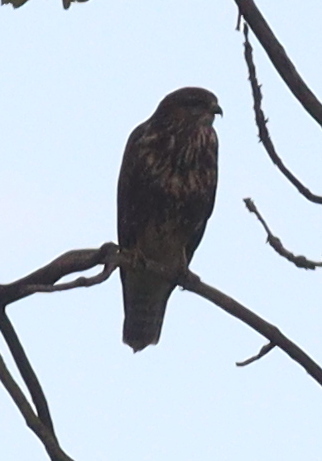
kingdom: Animalia
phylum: Chordata
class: Aves
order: Accipitriformes
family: Accipitridae
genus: Buteo
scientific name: Buteo buteo
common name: Common buzzard
